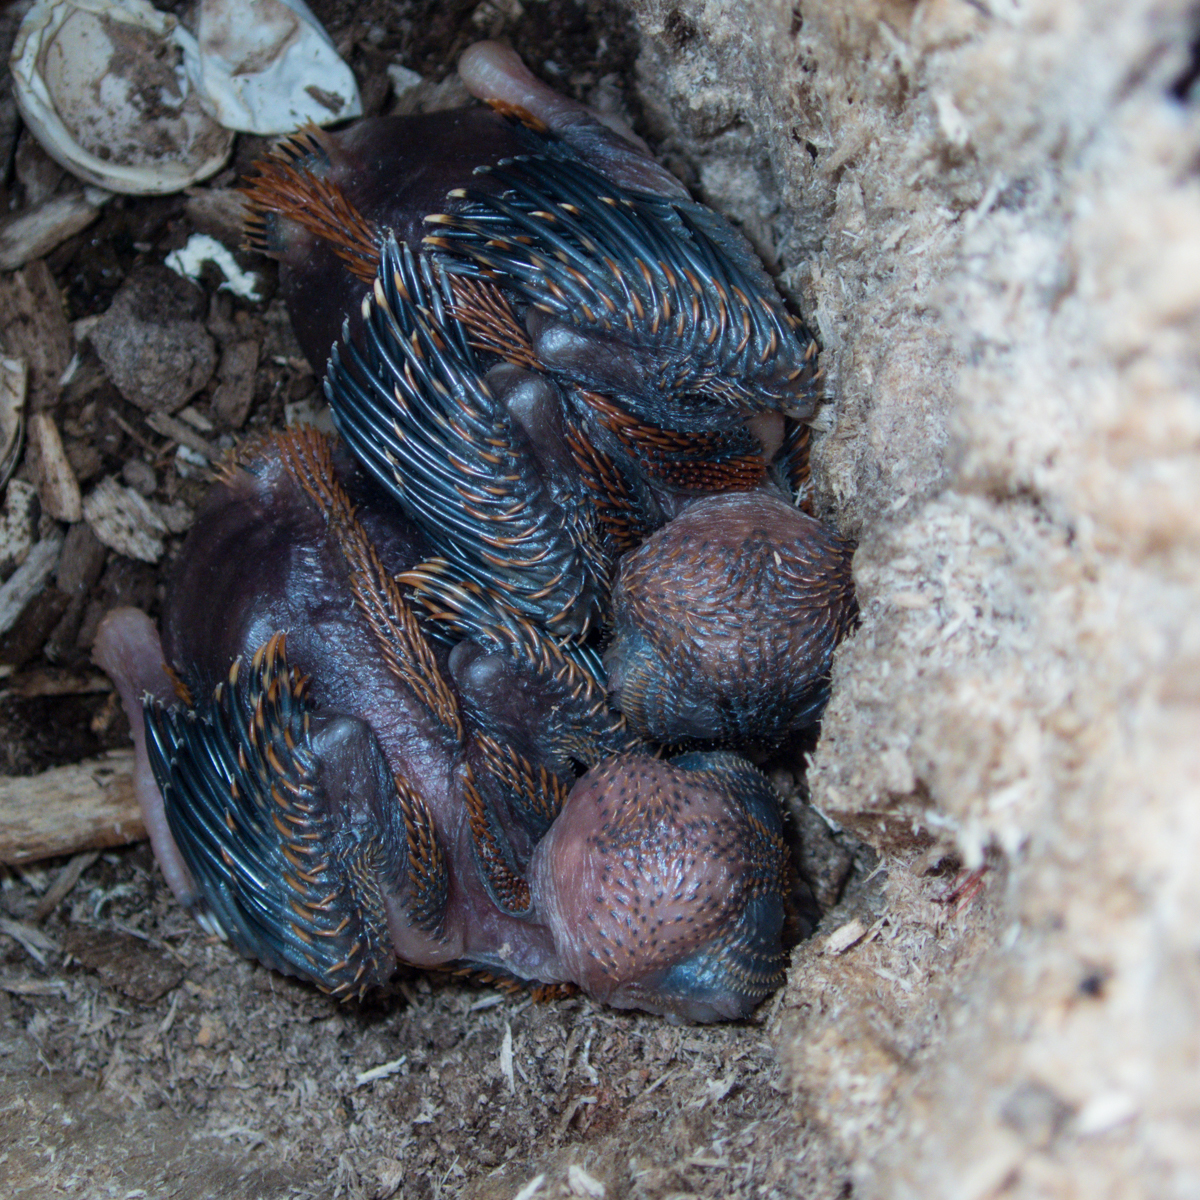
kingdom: Animalia
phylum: Chordata
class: Aves
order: Trogoniformes
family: Trogonidae
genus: Harpactes
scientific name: Harpactes erythrocephalus
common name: Red-headed trogon
